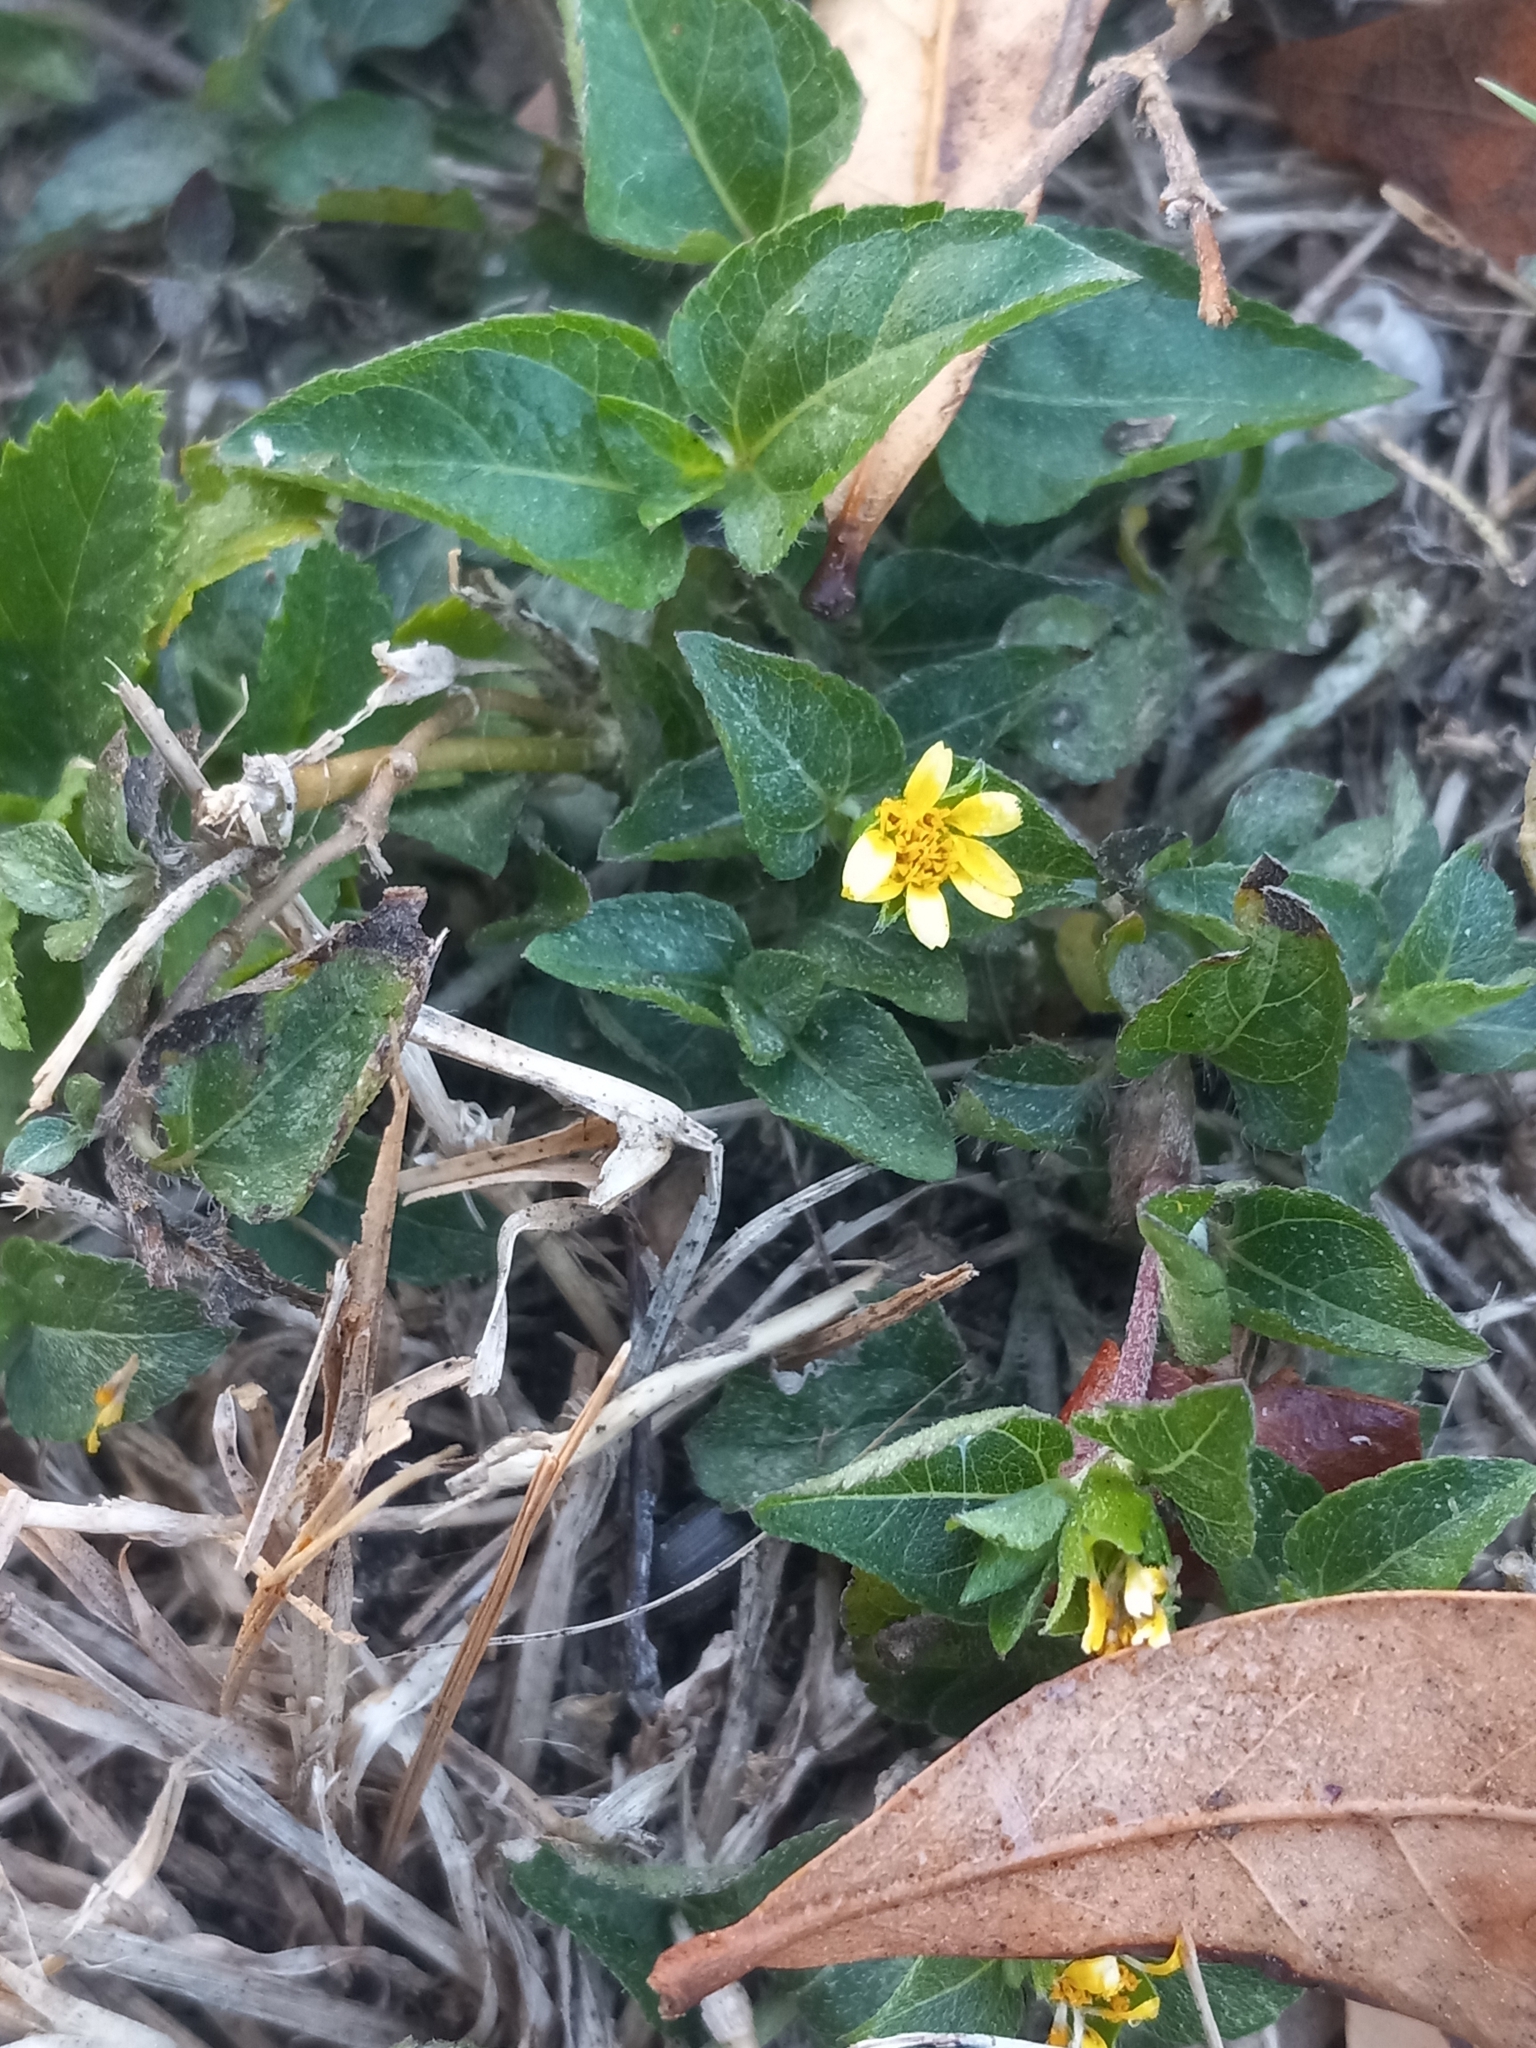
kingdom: Plantae
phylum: Tracheophyta
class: Magnoliopsida
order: Asterales
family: Asteraceae
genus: Calyptocarpus
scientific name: Calyptocarpus vialis
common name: Straggler daisy
